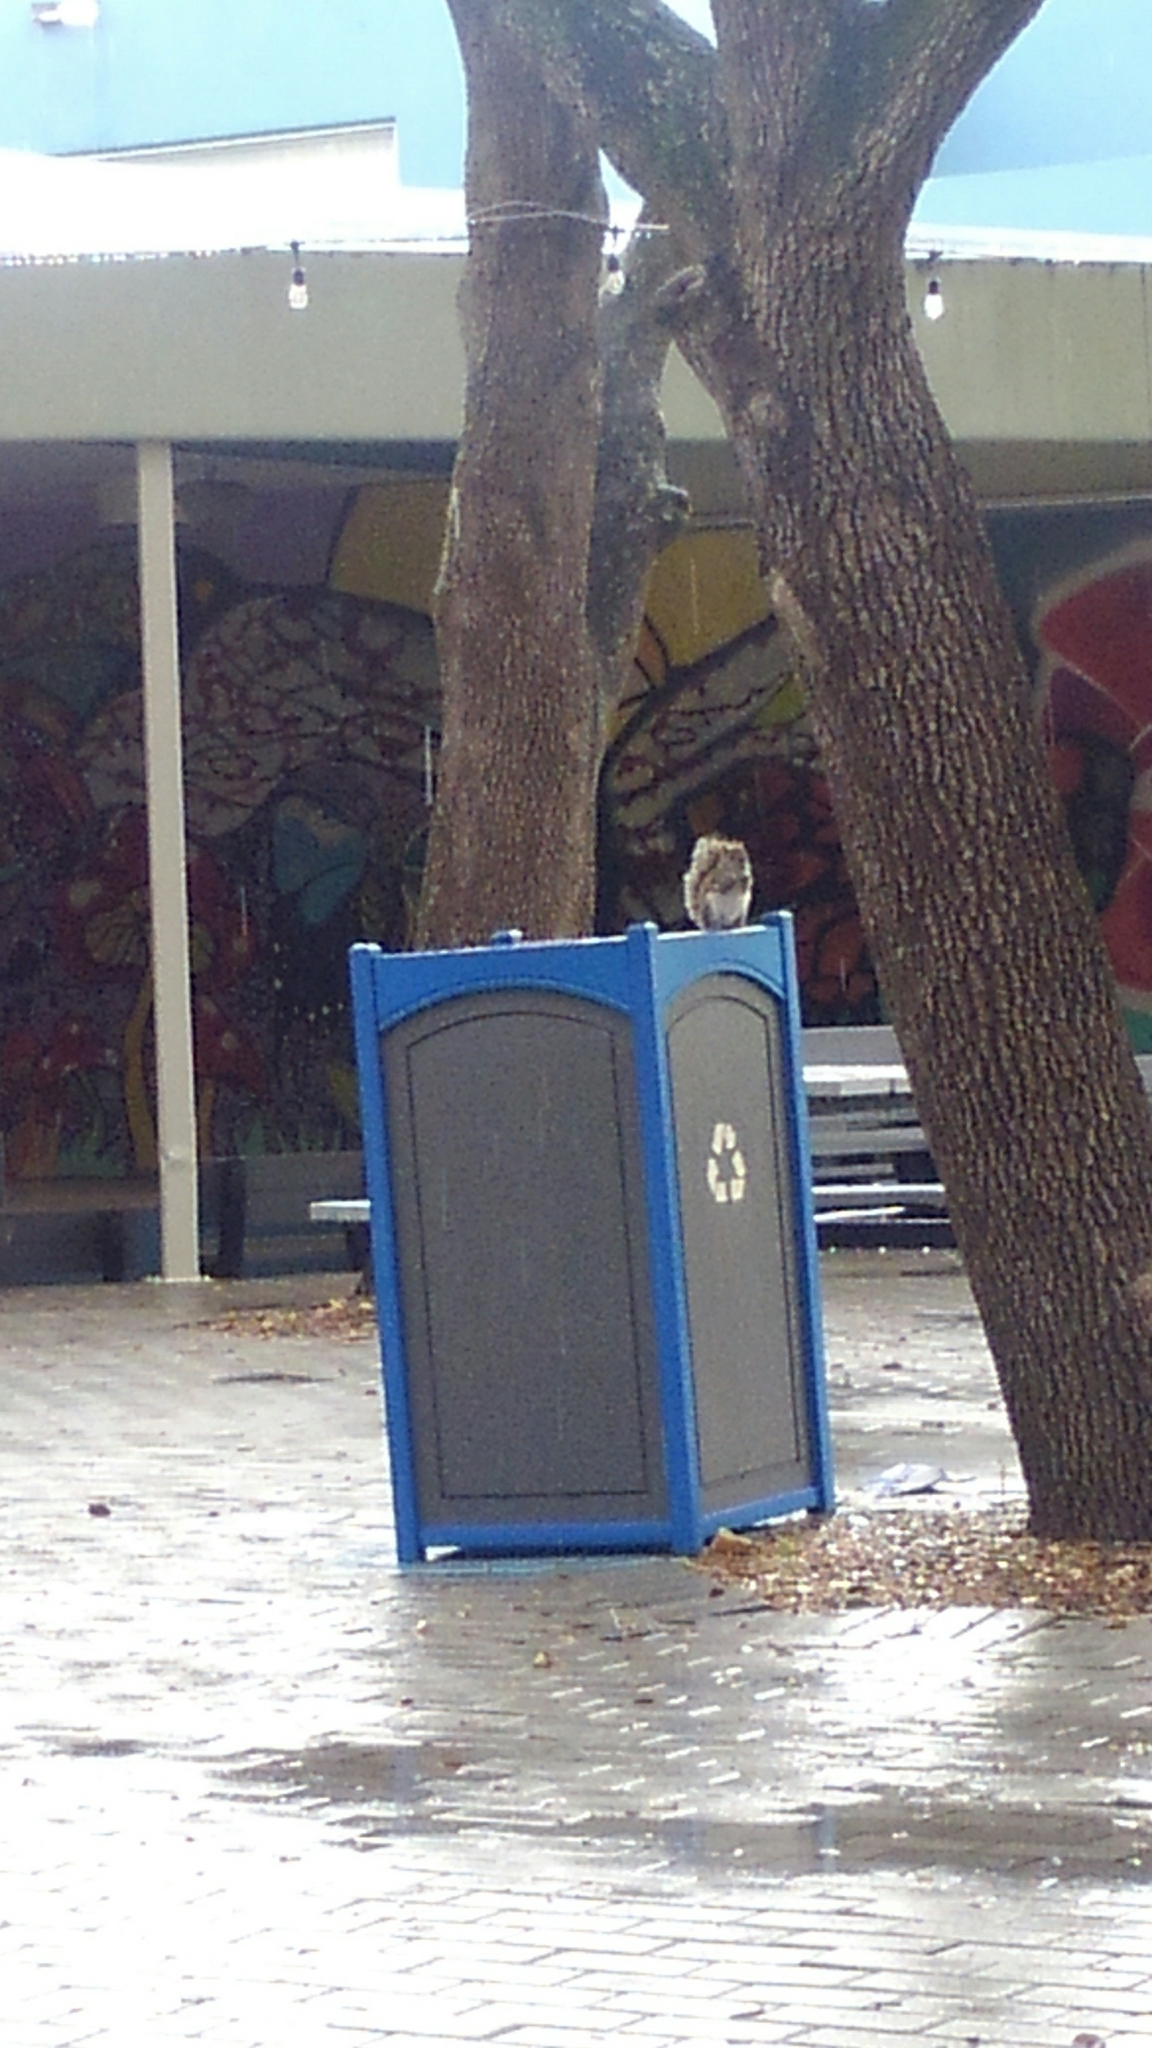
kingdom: Animalia
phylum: Chordata
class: Mammalia
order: Rodentia
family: Sciuridae
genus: Sciurus
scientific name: Sciurus carolinensis
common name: Eastern gray squirrel
